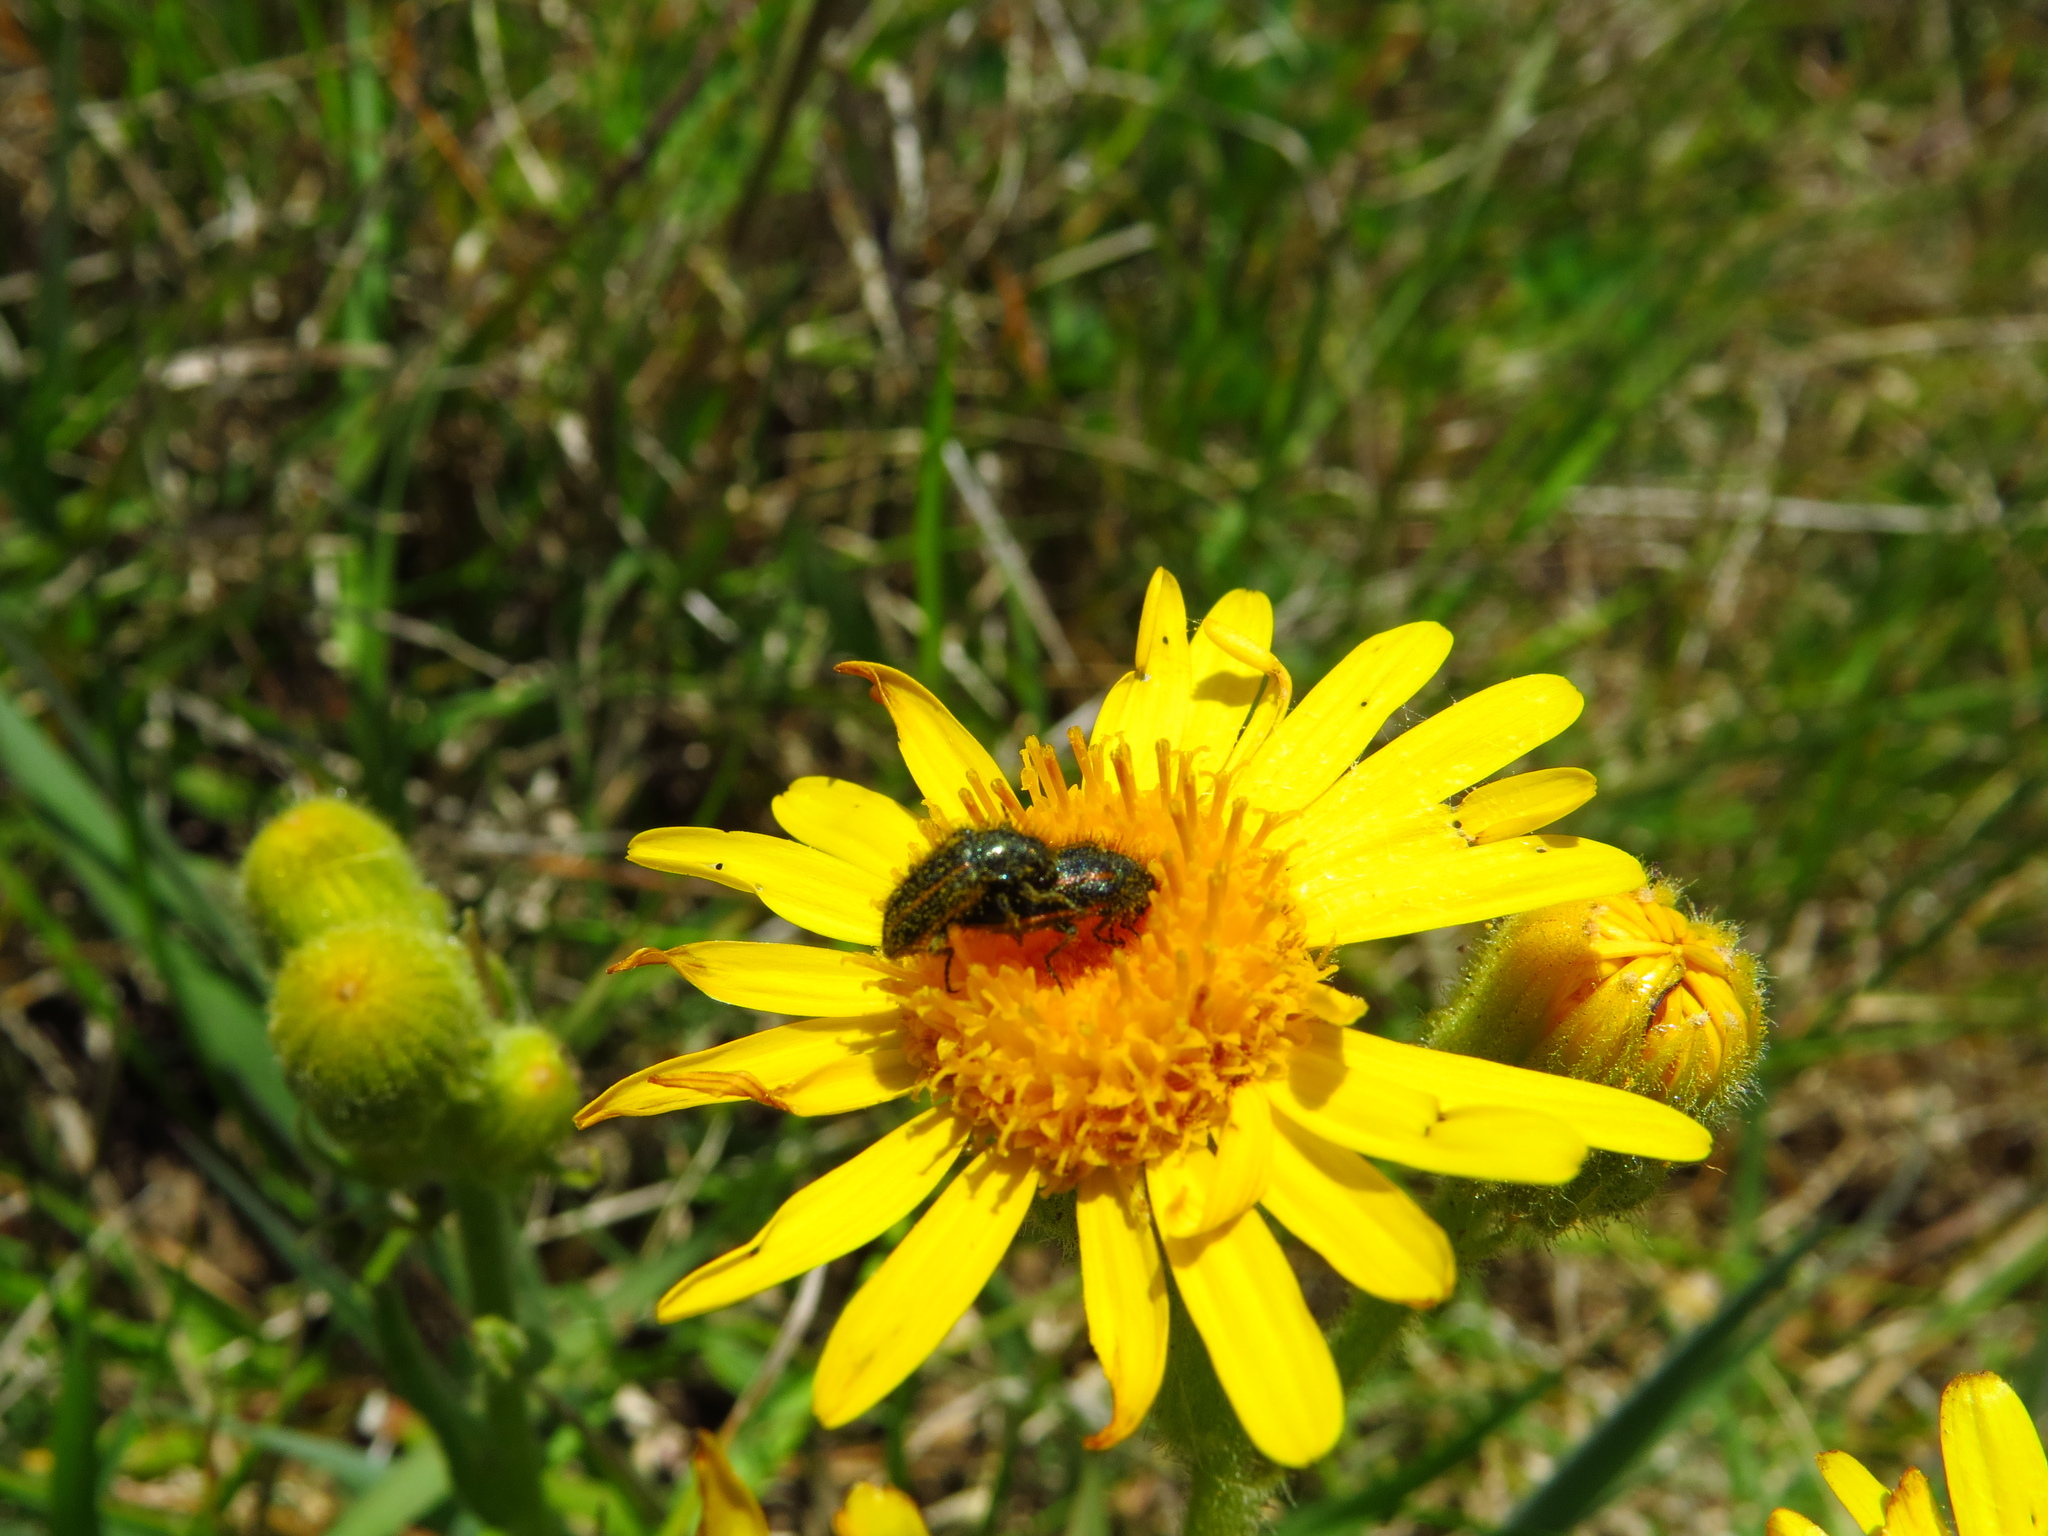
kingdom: Animalia
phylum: Arthropoda
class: Insecta
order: Coleoptera
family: Melyridae
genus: Astylus
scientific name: Astylus
